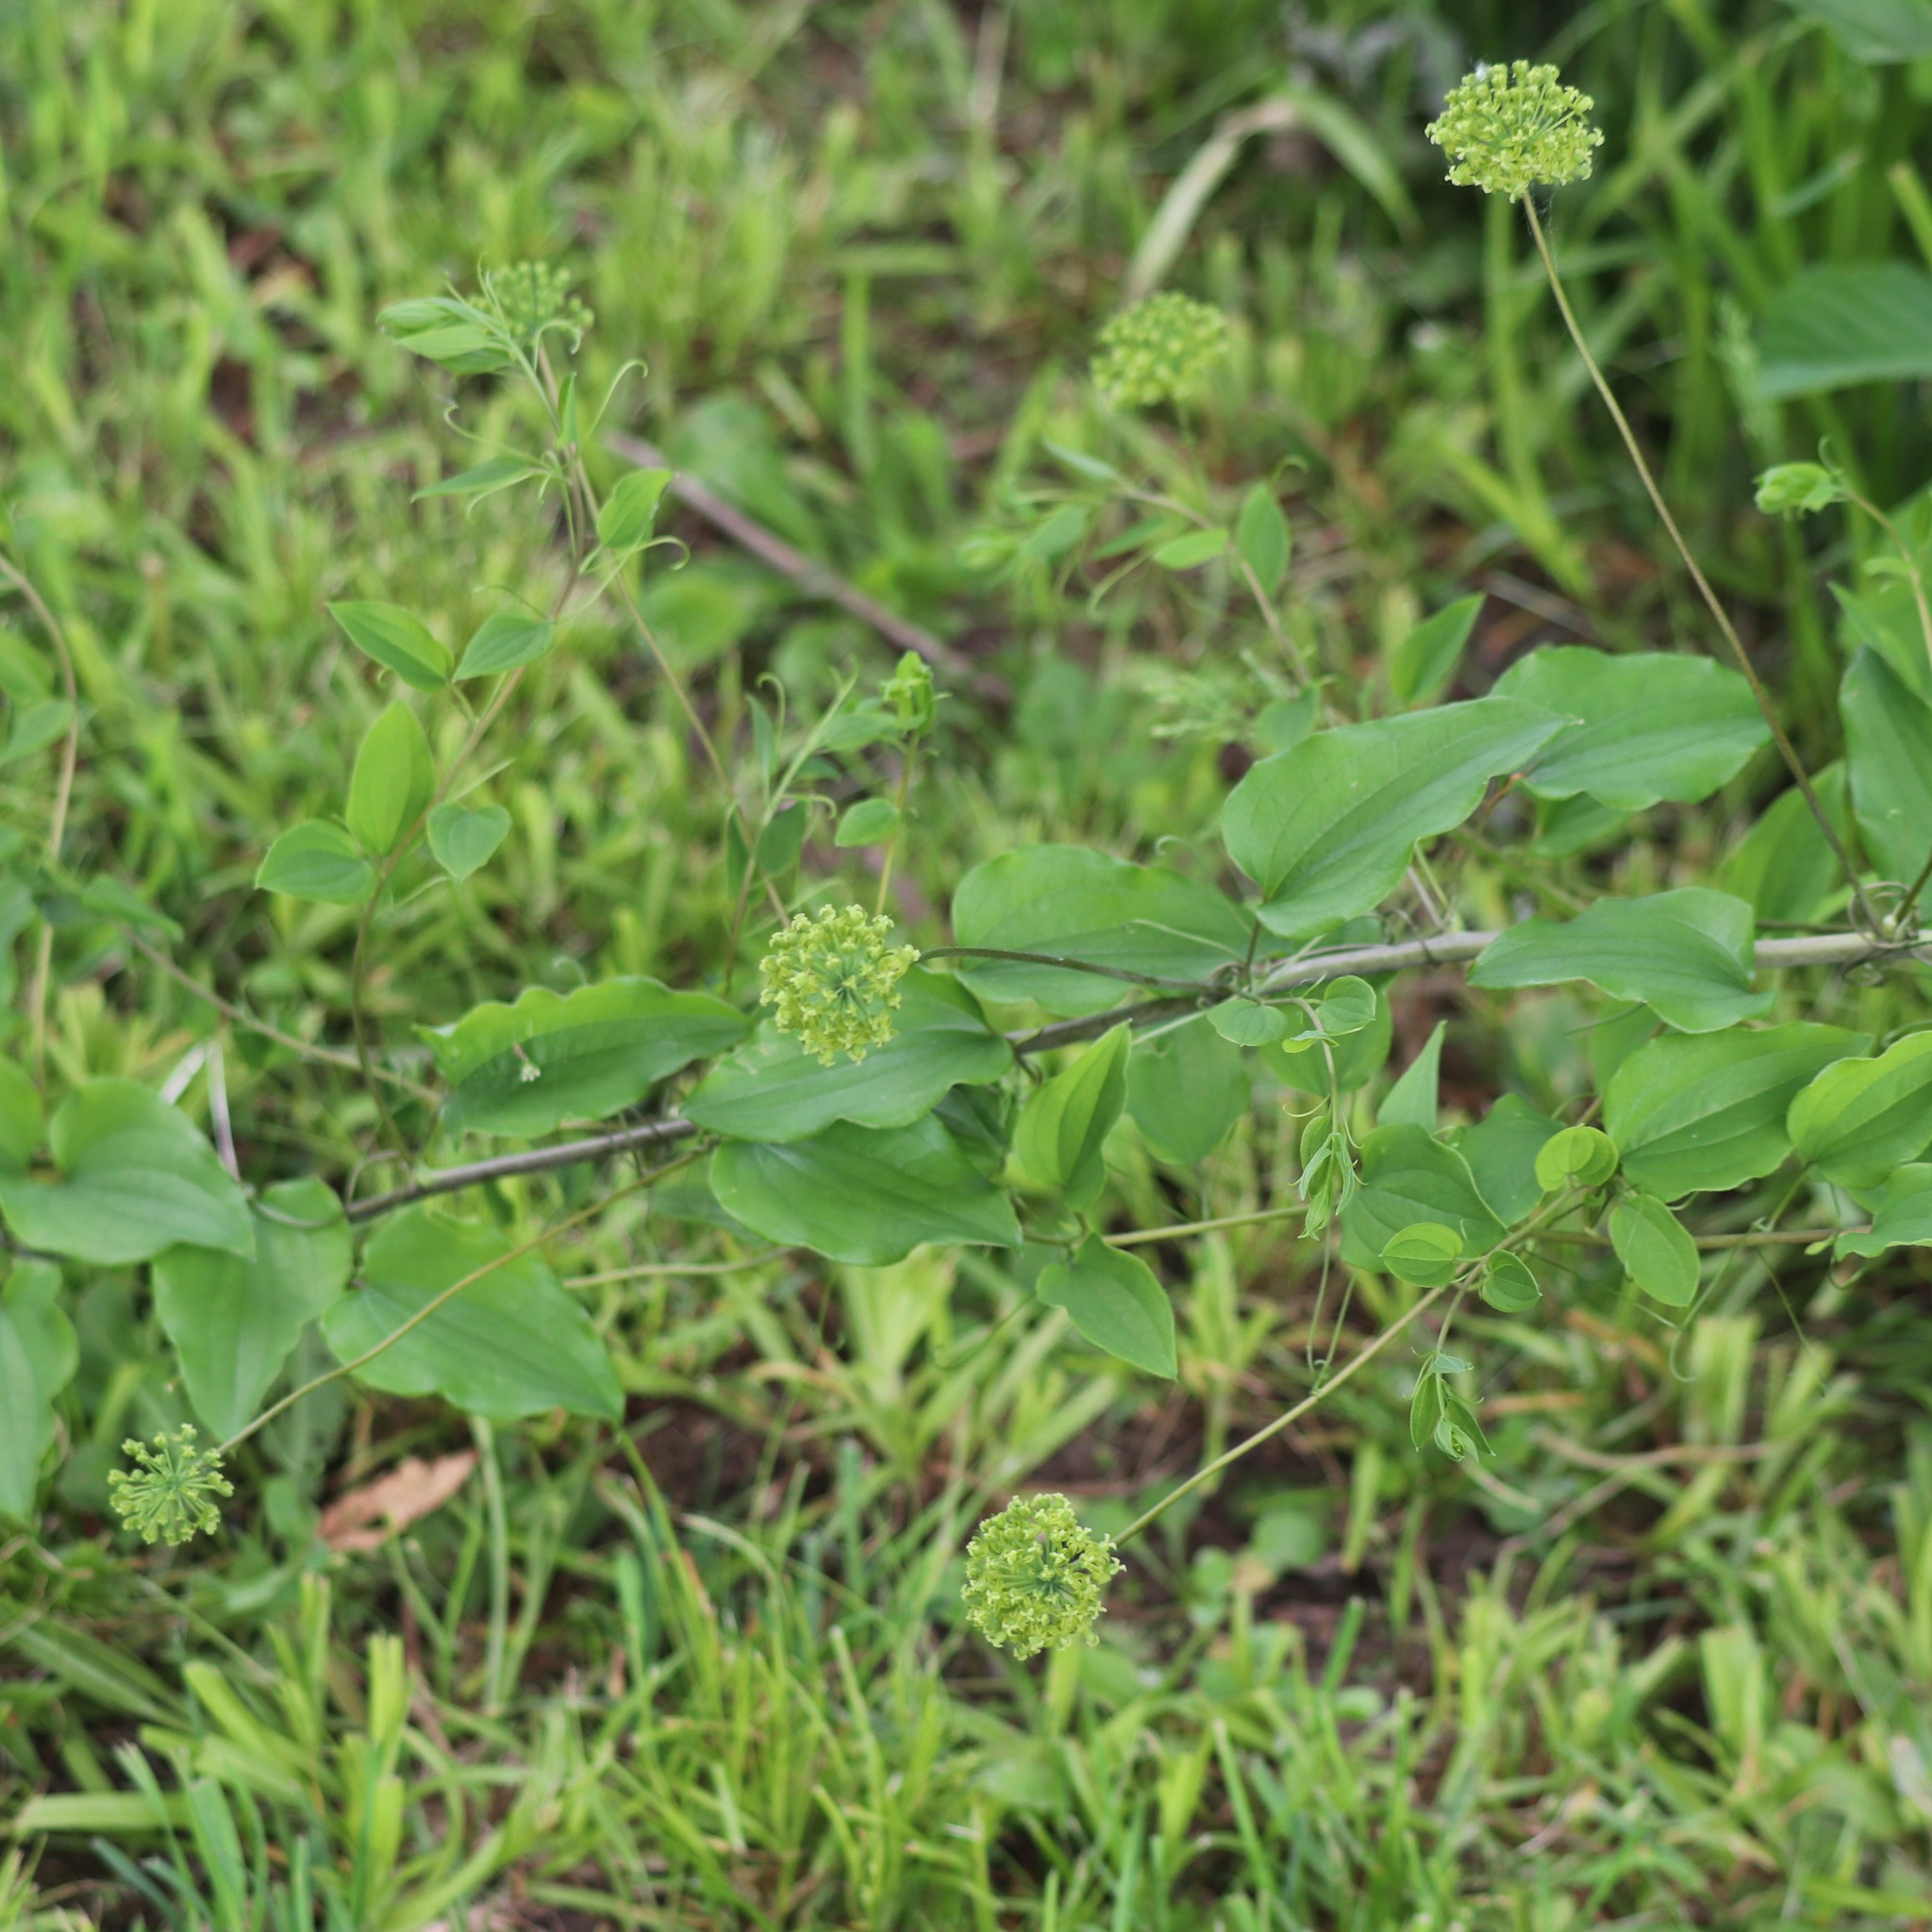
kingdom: Plantae
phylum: Tracheophyta
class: Liliopsida
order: Liliales
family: Smilacaceae
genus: Smilax
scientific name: Smilax herbacea
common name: Jacob's-ladder
